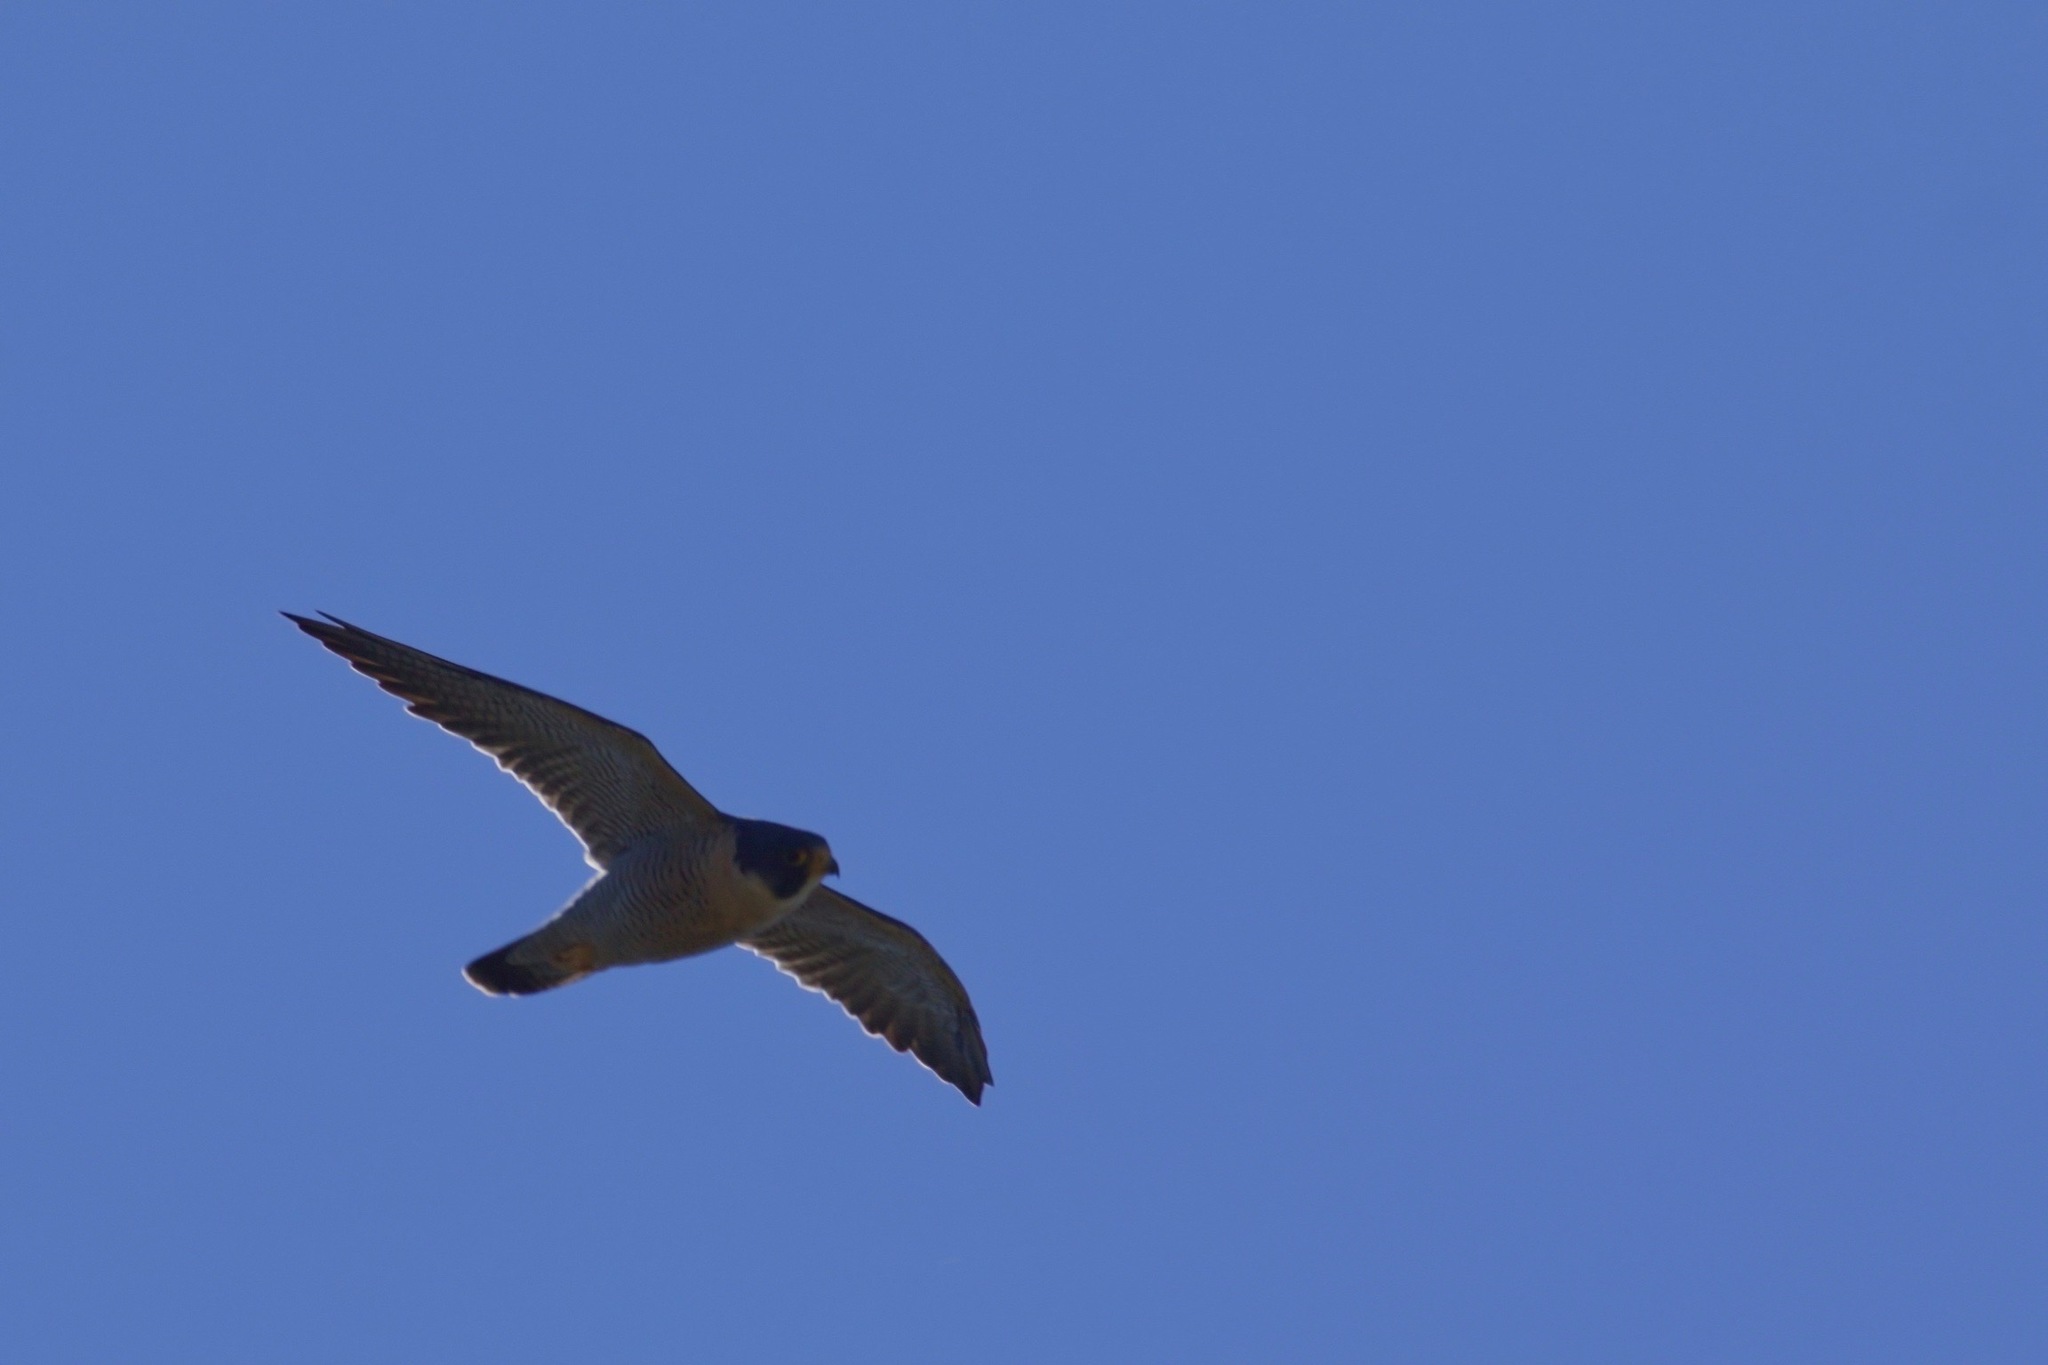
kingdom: Animalia
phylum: Chordata
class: Aves
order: Falconiformes
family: Falconidae
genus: Falco
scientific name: Falco peregrinus
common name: Peregrine falcon
